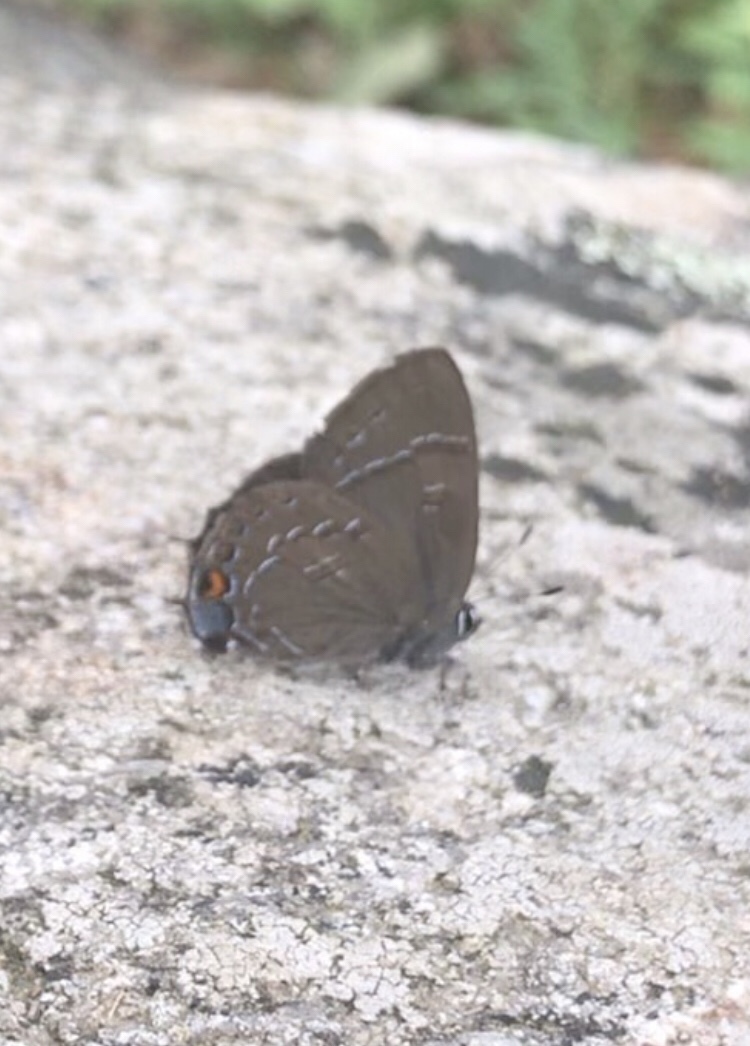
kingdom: Animalia
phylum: Arthropoda
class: Insecta
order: Lepidoptera
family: Lycaenidae
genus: Satyrium
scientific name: Satyrium calanus
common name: Banded hairstreak
